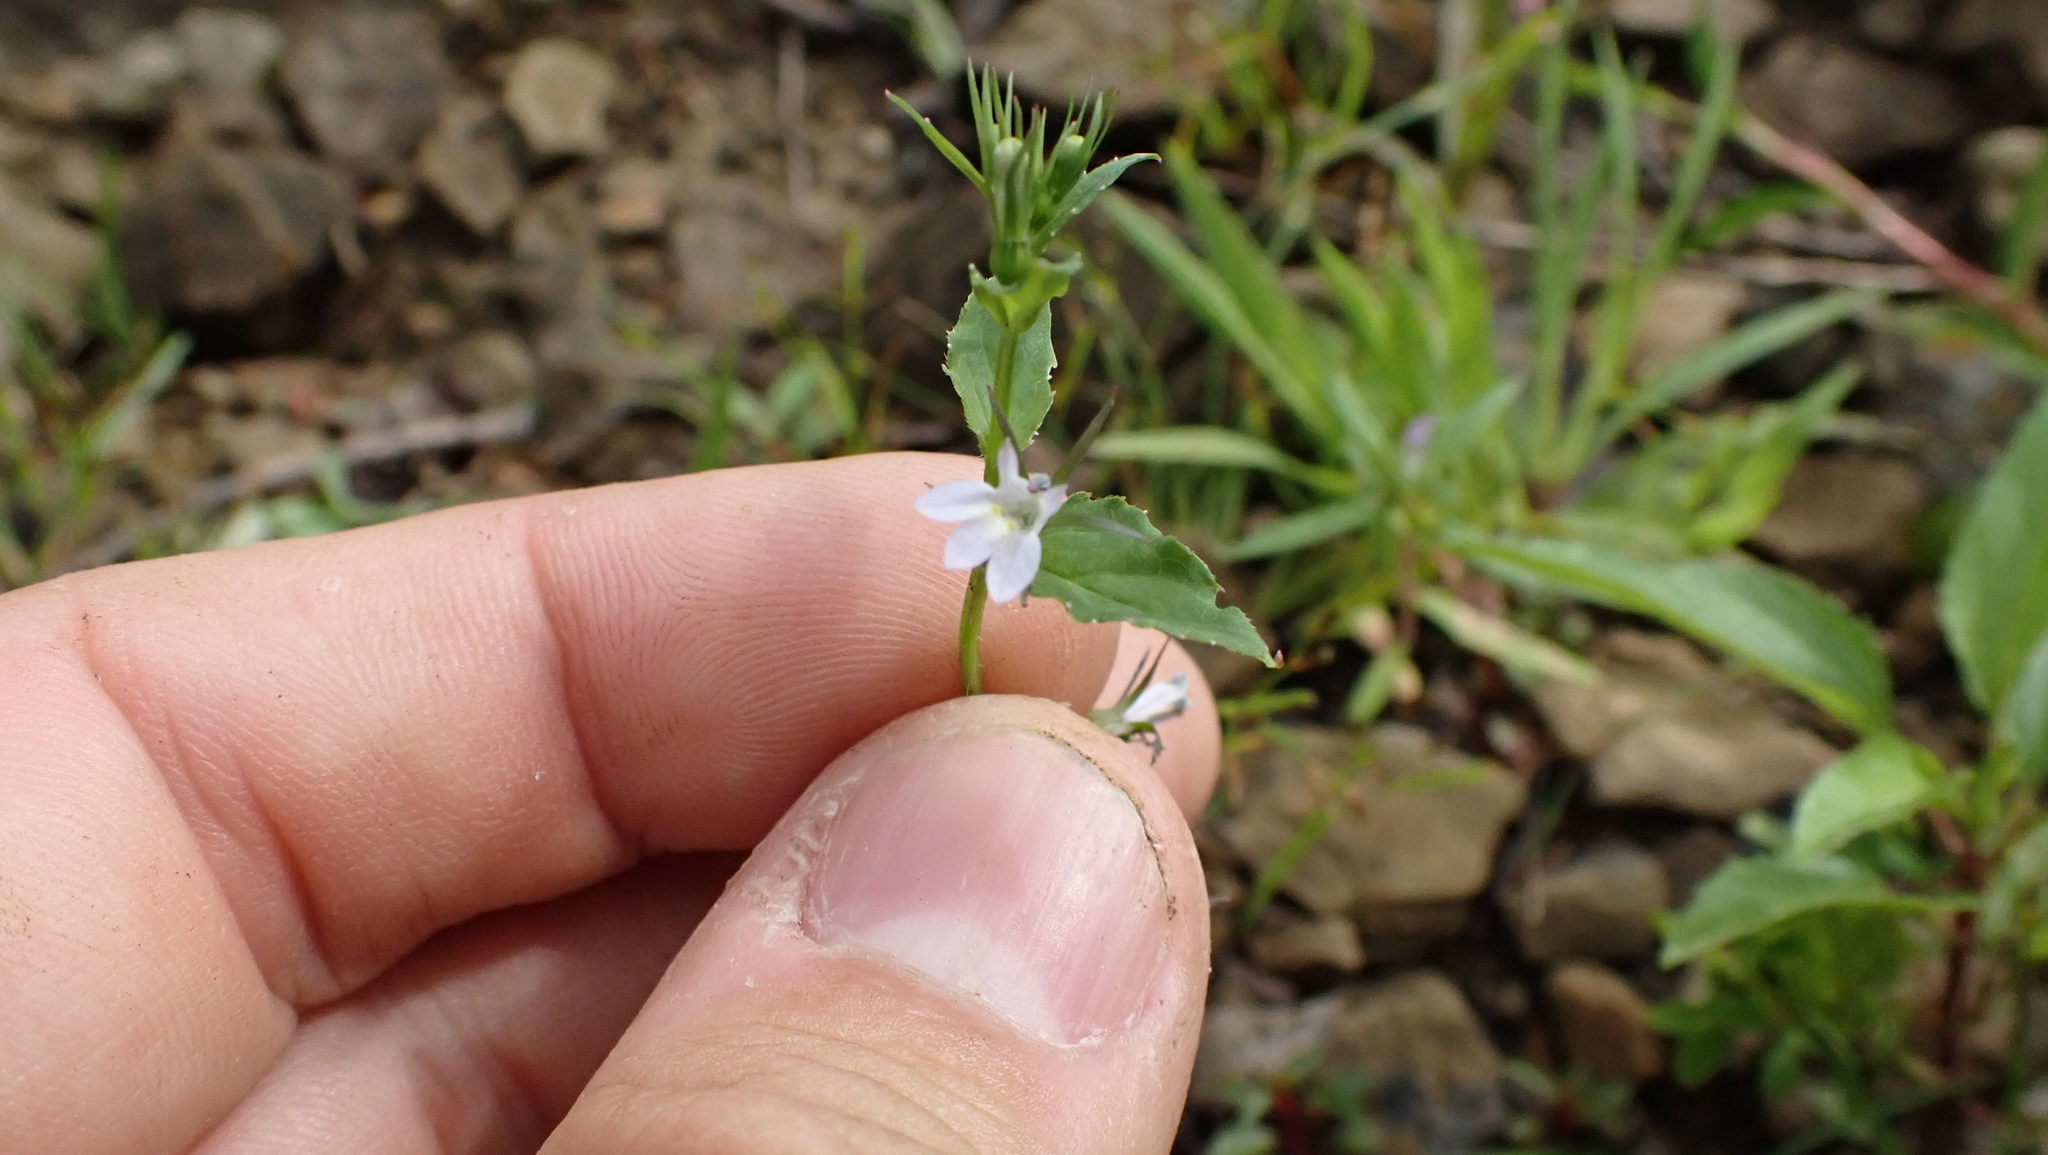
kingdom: Plantae
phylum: Tracheophyta
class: Magnoliopsida
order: Asterales
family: Campanulaceae
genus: Lobelia
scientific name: Lobelia inflata
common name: Indian tobacco
